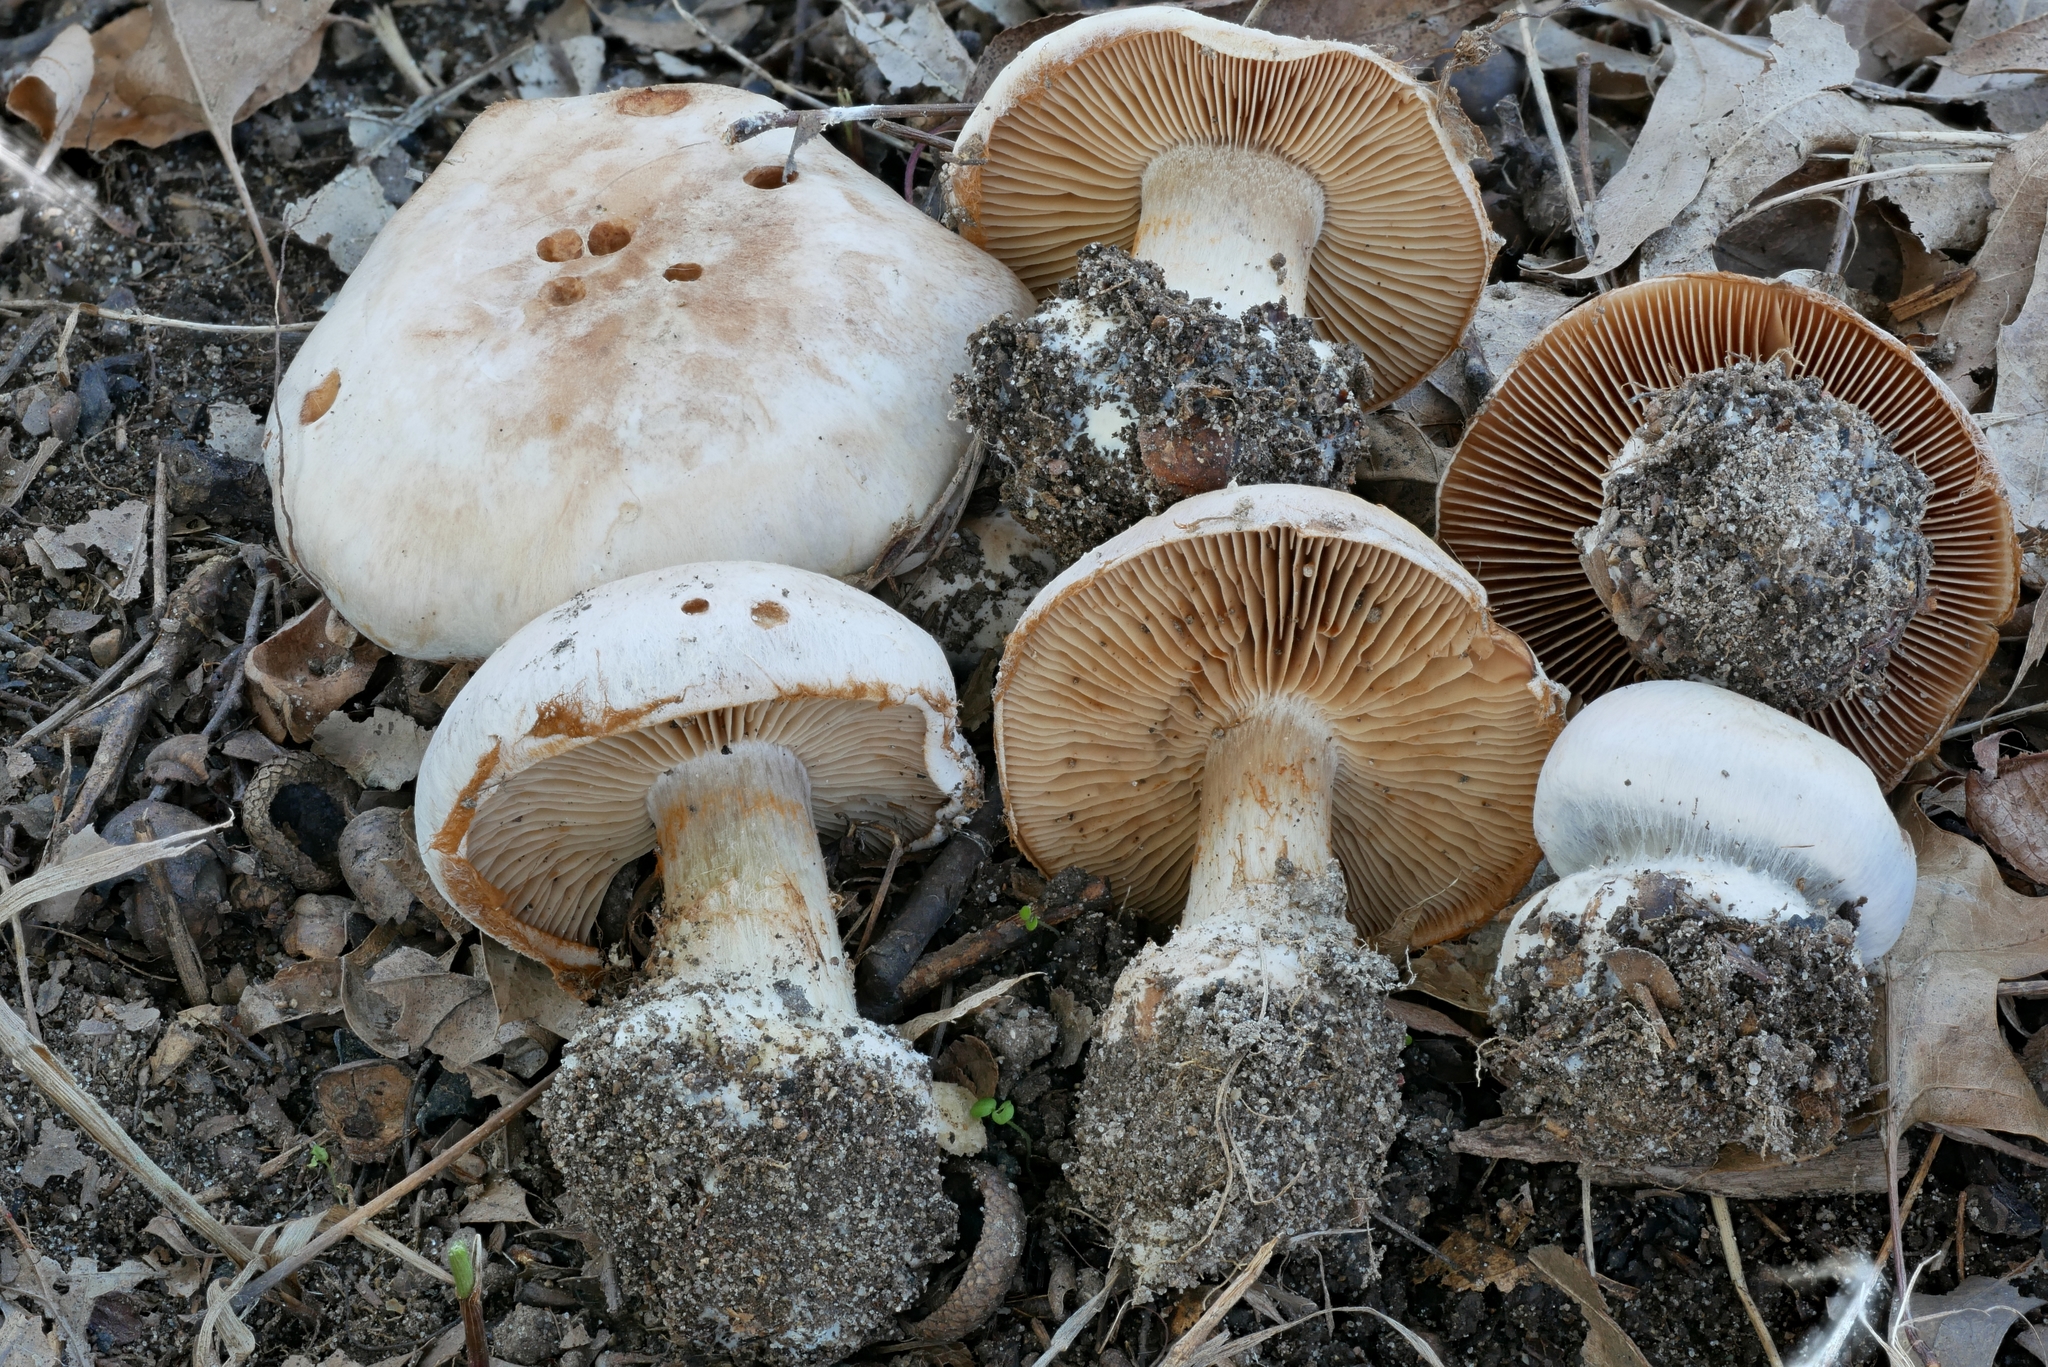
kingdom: Fungi
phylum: Basidiomycota
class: Agaricomycetes
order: Agaricales
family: Cortinariaceae
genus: Cortinarius
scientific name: Cortinarius scaurotraganoides
